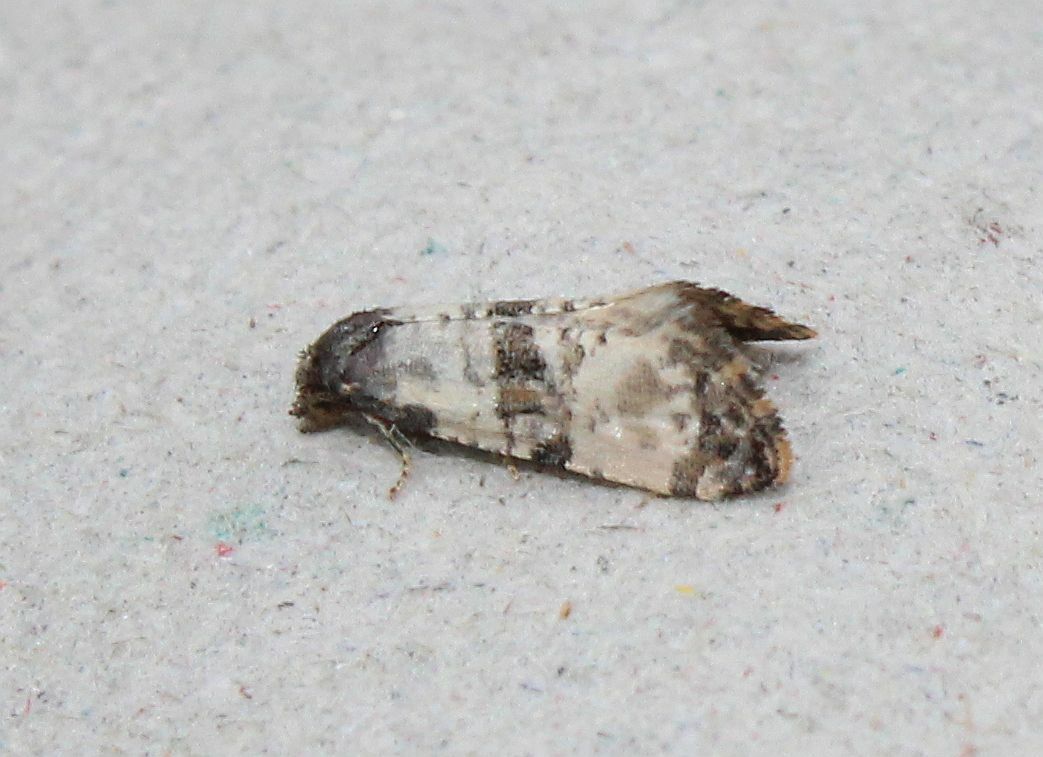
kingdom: Animalia
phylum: Arthropoda
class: Insecta
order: Lepidoptera
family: Tortricidae
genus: Cochylis
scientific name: Cochylis atricapitana
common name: Tortricid moth
